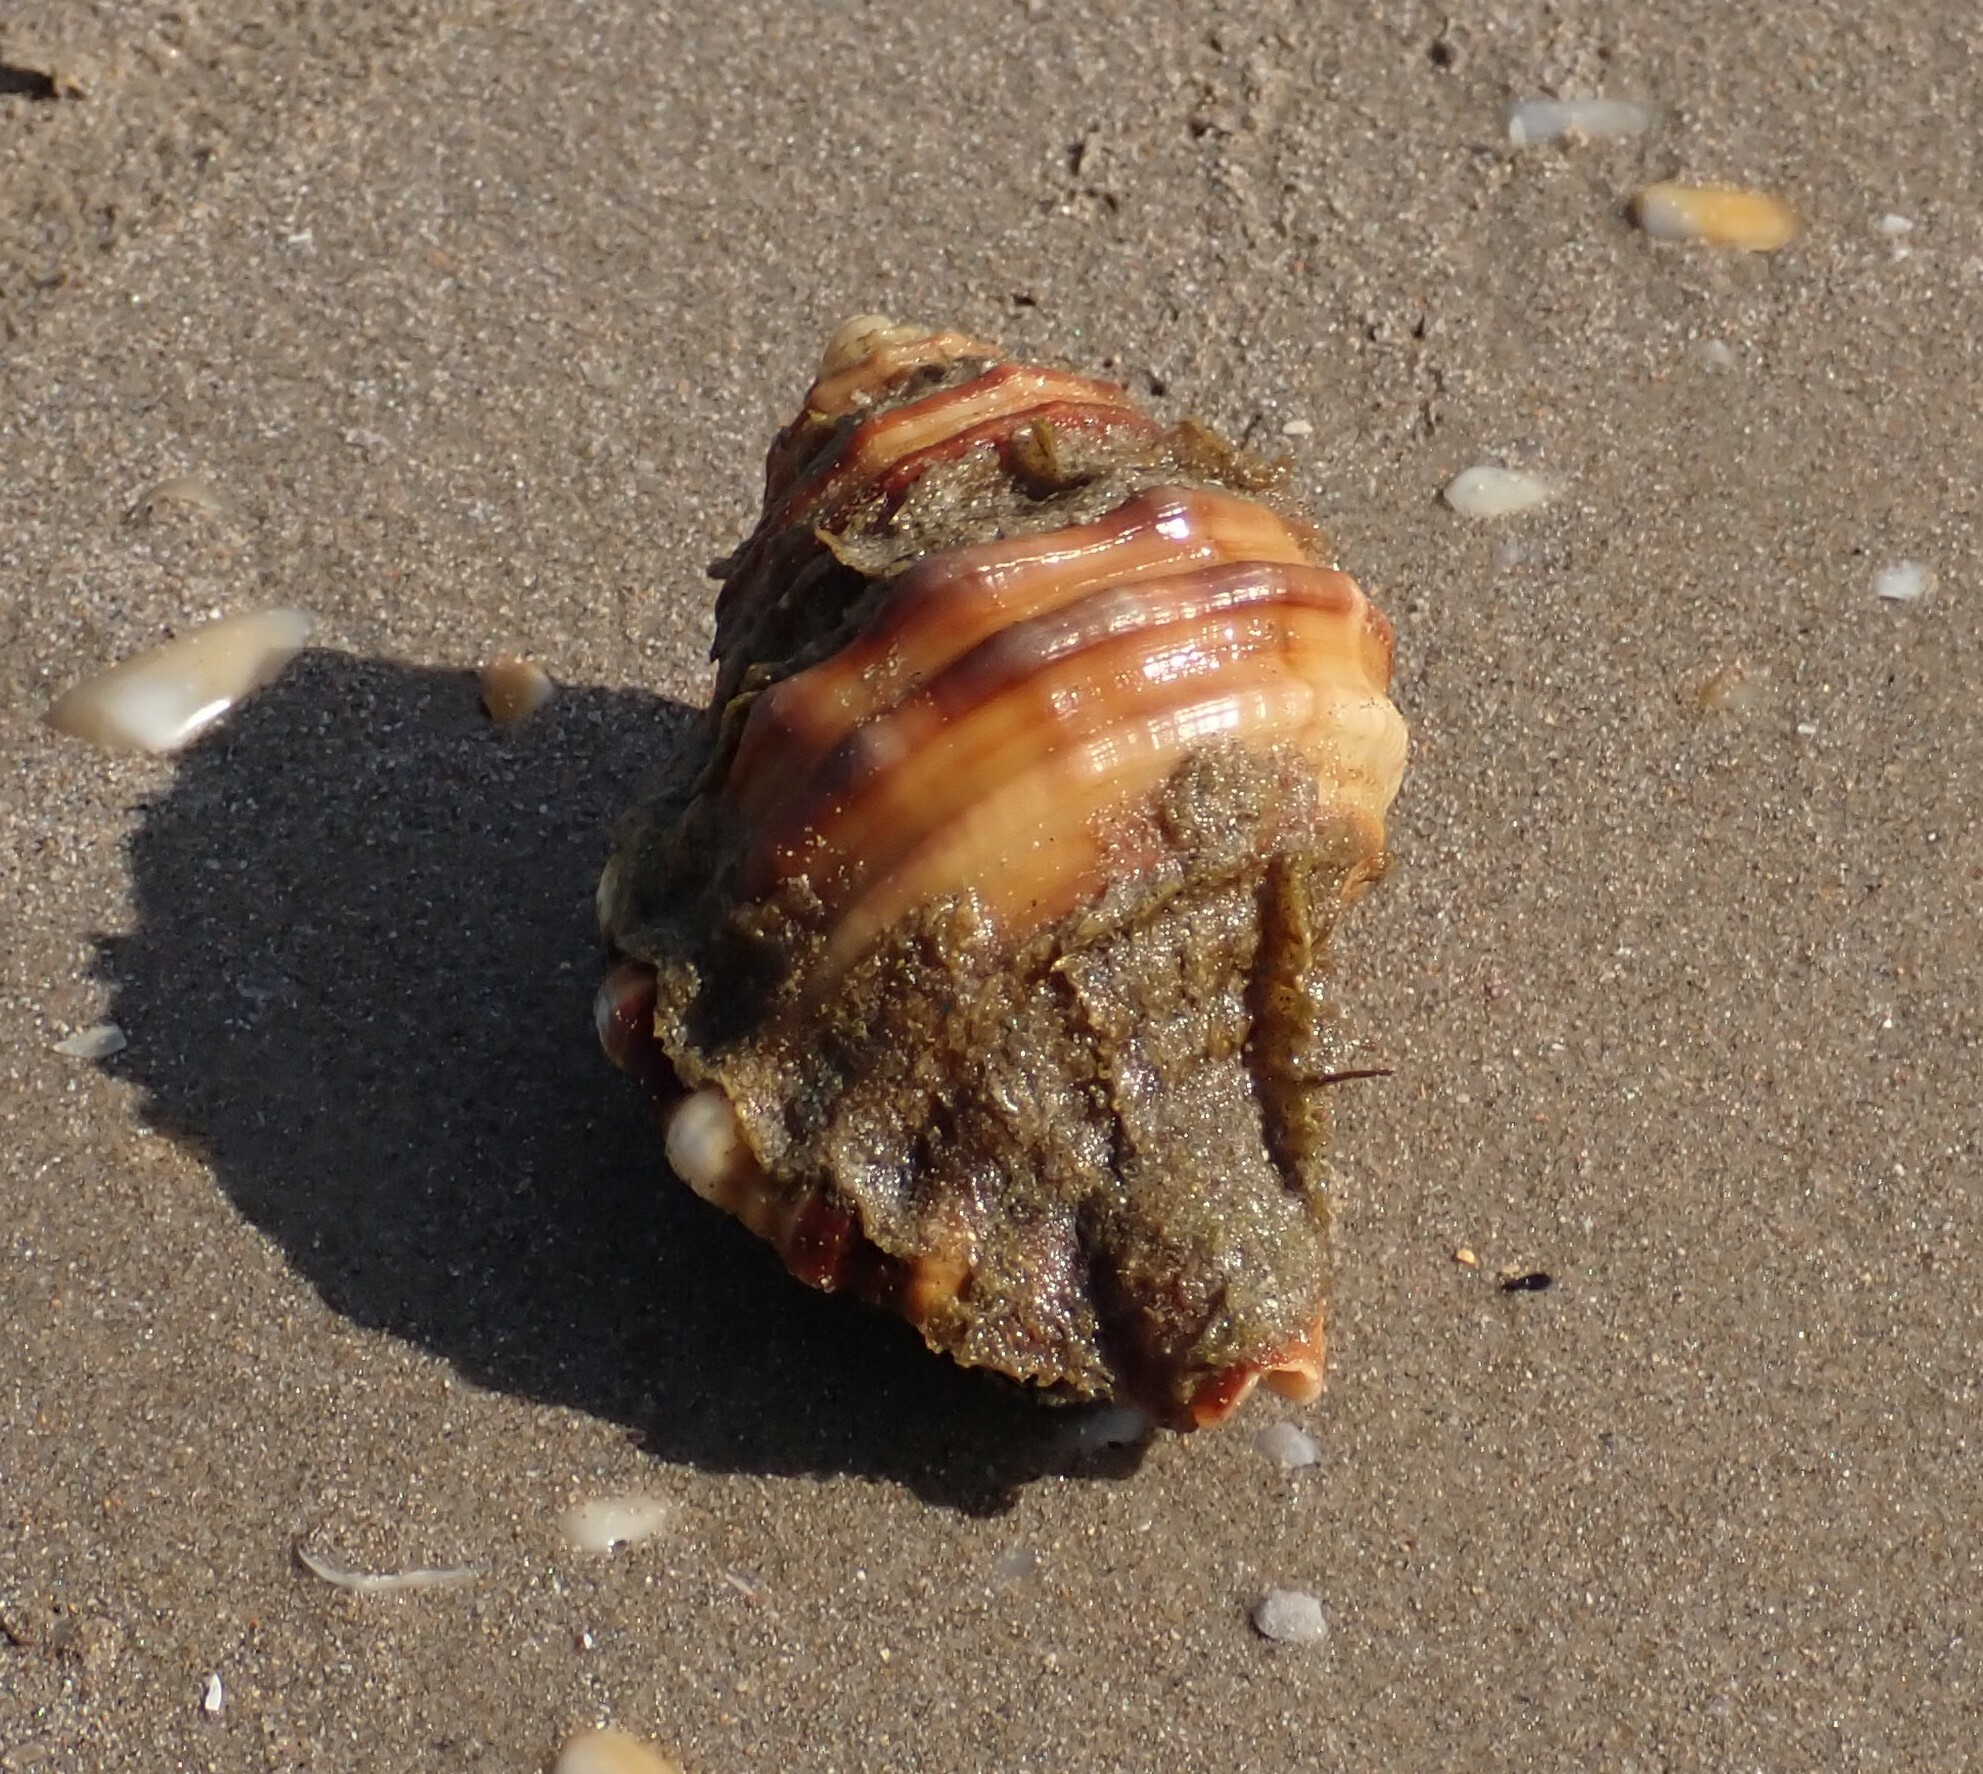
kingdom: Animalia
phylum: Mollusca
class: Gastropoda
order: Littorinimorpha
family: Cymatiidae
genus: Monoplex
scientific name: Monoplex parthenopeus
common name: Giant triton
